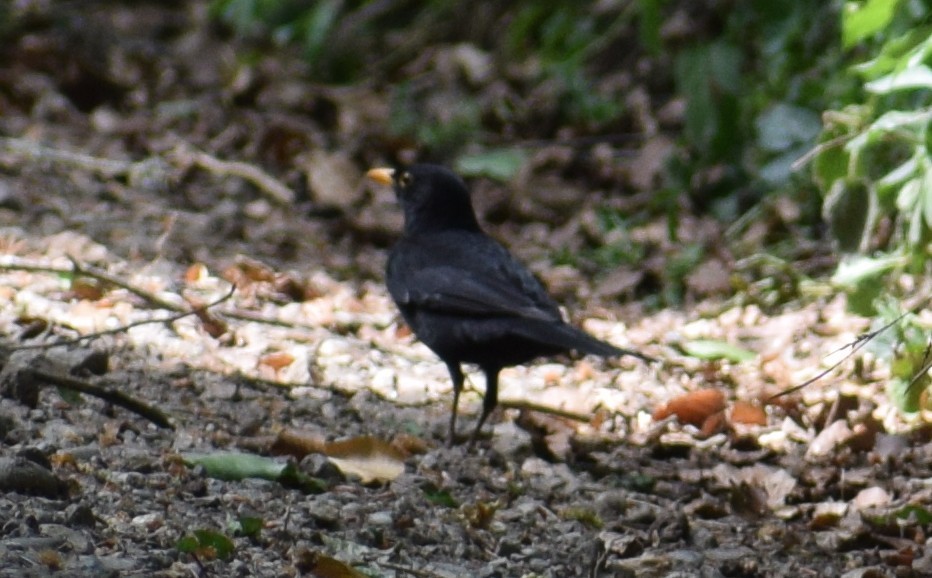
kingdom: Animalia
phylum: Chordata
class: Aves
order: Passeriformes
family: Turdidae
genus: Turdus
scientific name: Turdus merula
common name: Common blackbird
